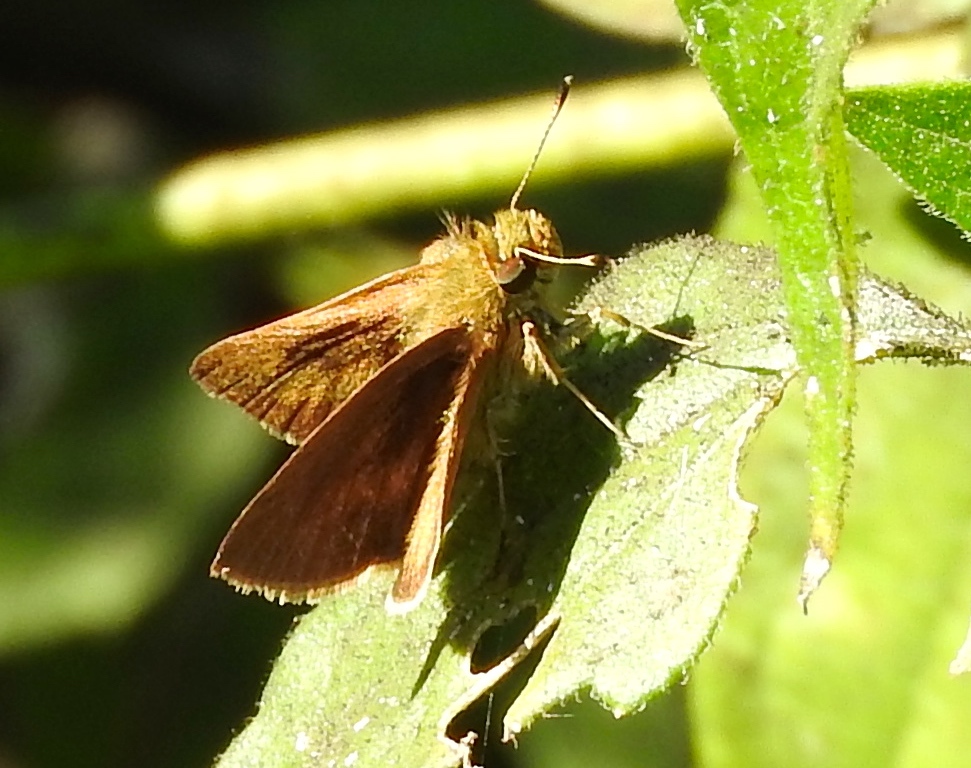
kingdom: Animalia
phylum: Arthropoda
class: Insecta
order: Lepidoptera
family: Hesperiidae
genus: Synapte
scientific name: Synapte
